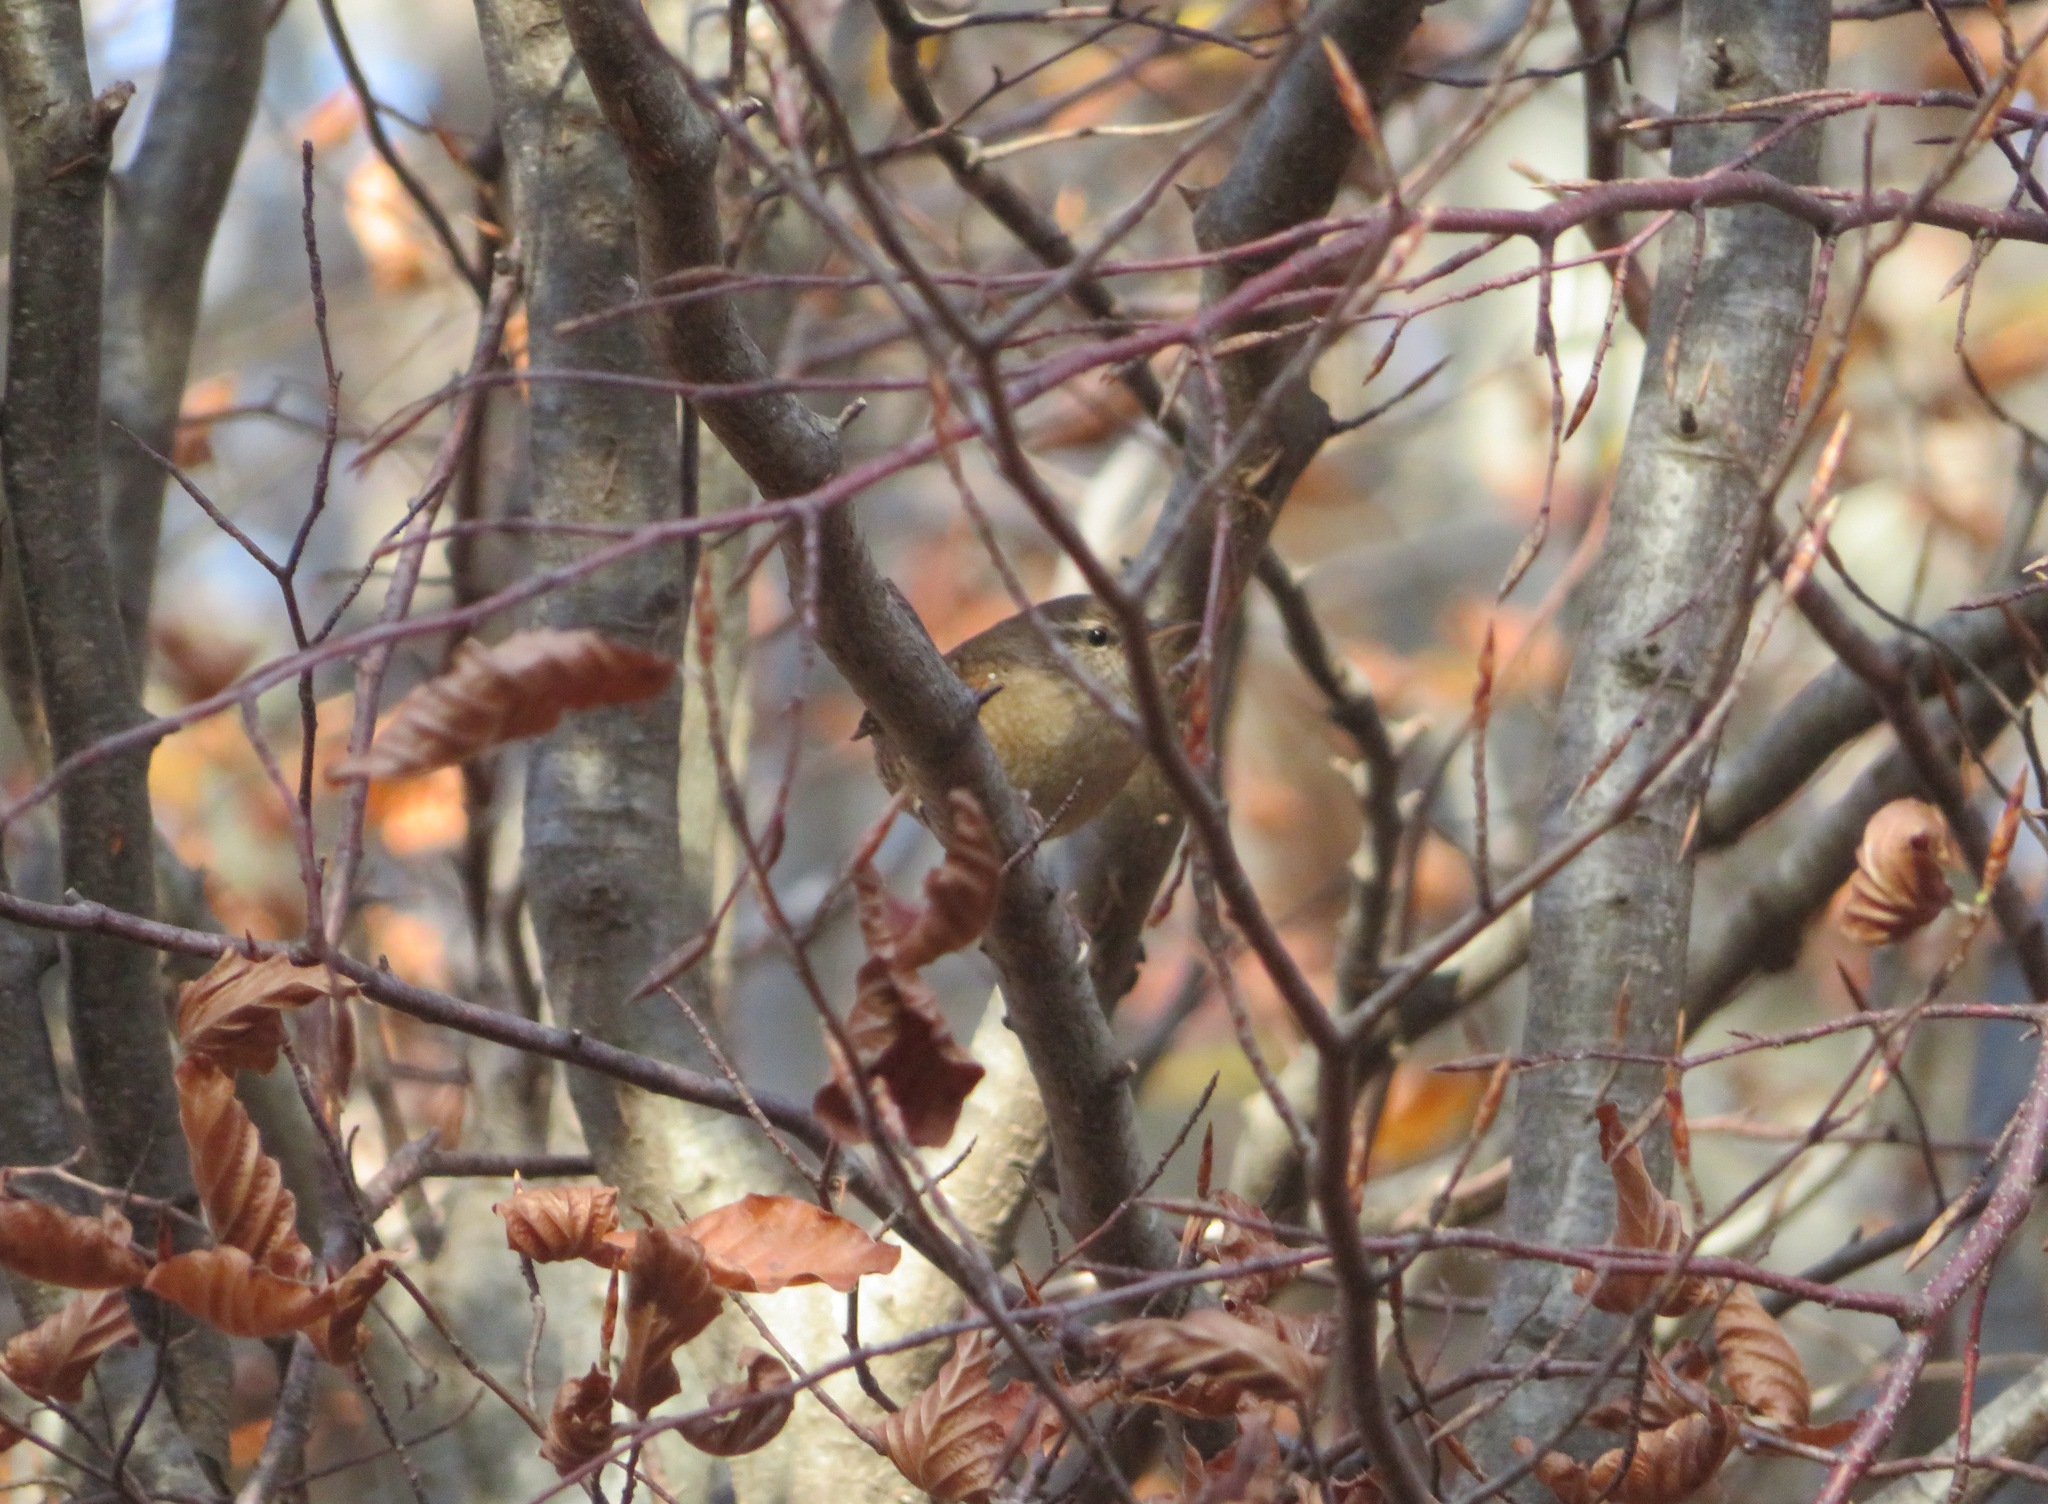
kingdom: Animalia
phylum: Chordata
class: Aves
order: Passeriformes
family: Troglodytidae
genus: Troglodytes
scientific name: Troglodytes troglodytes
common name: Eurasian wren
